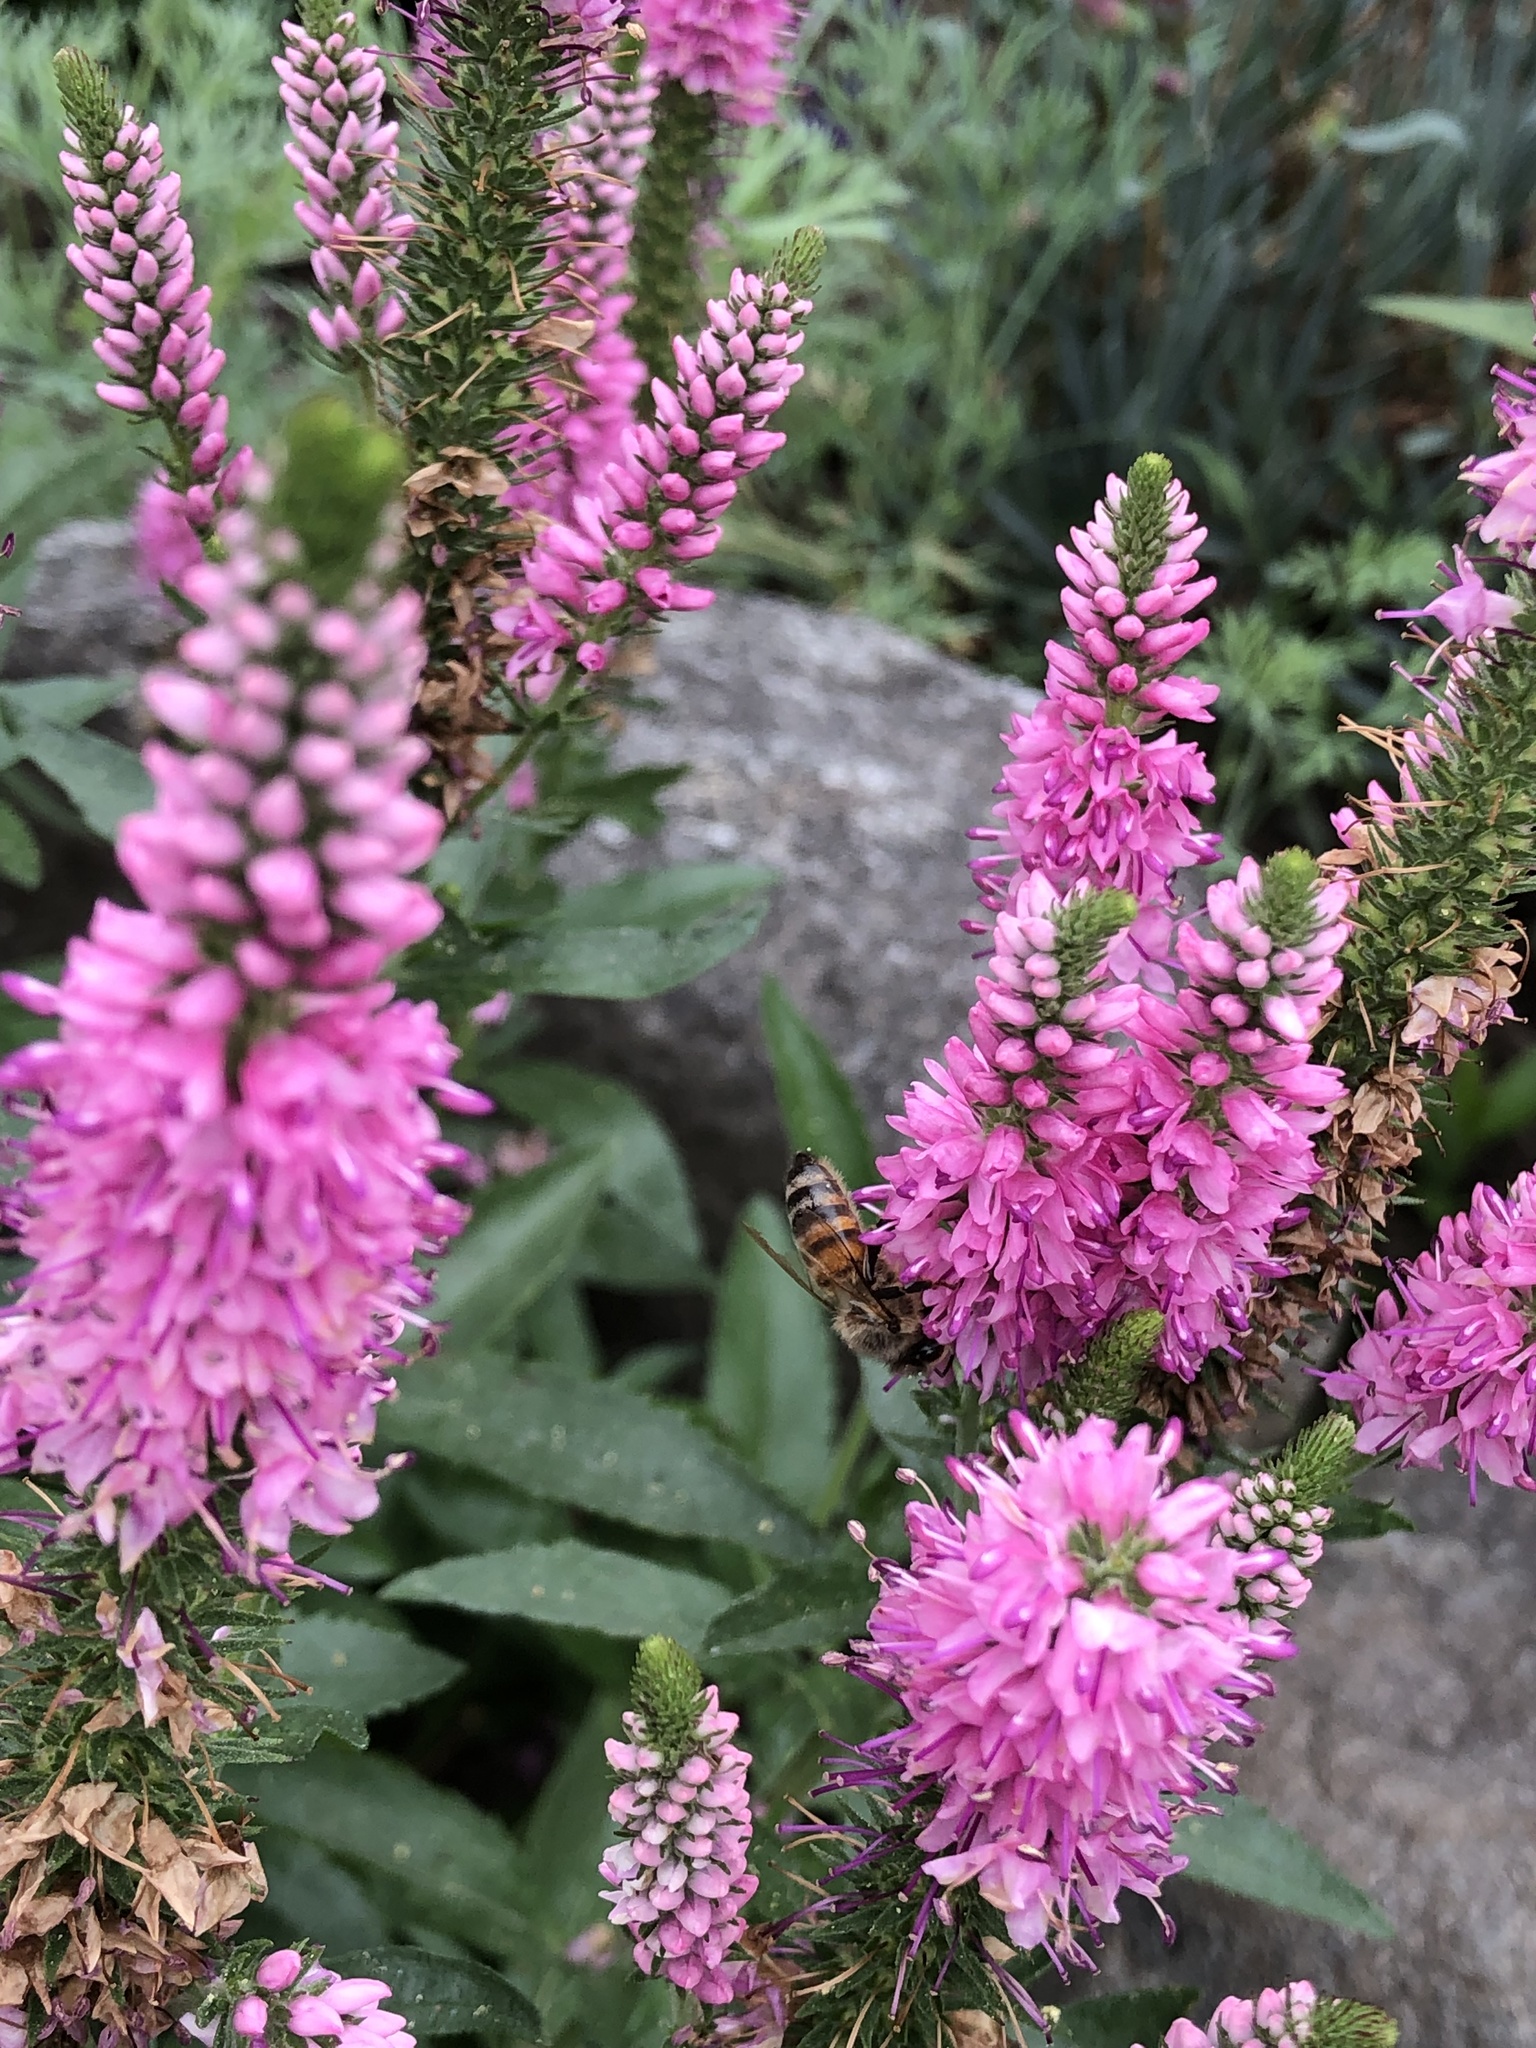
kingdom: Animalia
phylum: Arthropoda
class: Insecta
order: Hymenoptera
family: Apidae
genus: Apis
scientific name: Apis mellifera
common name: Honey bee
